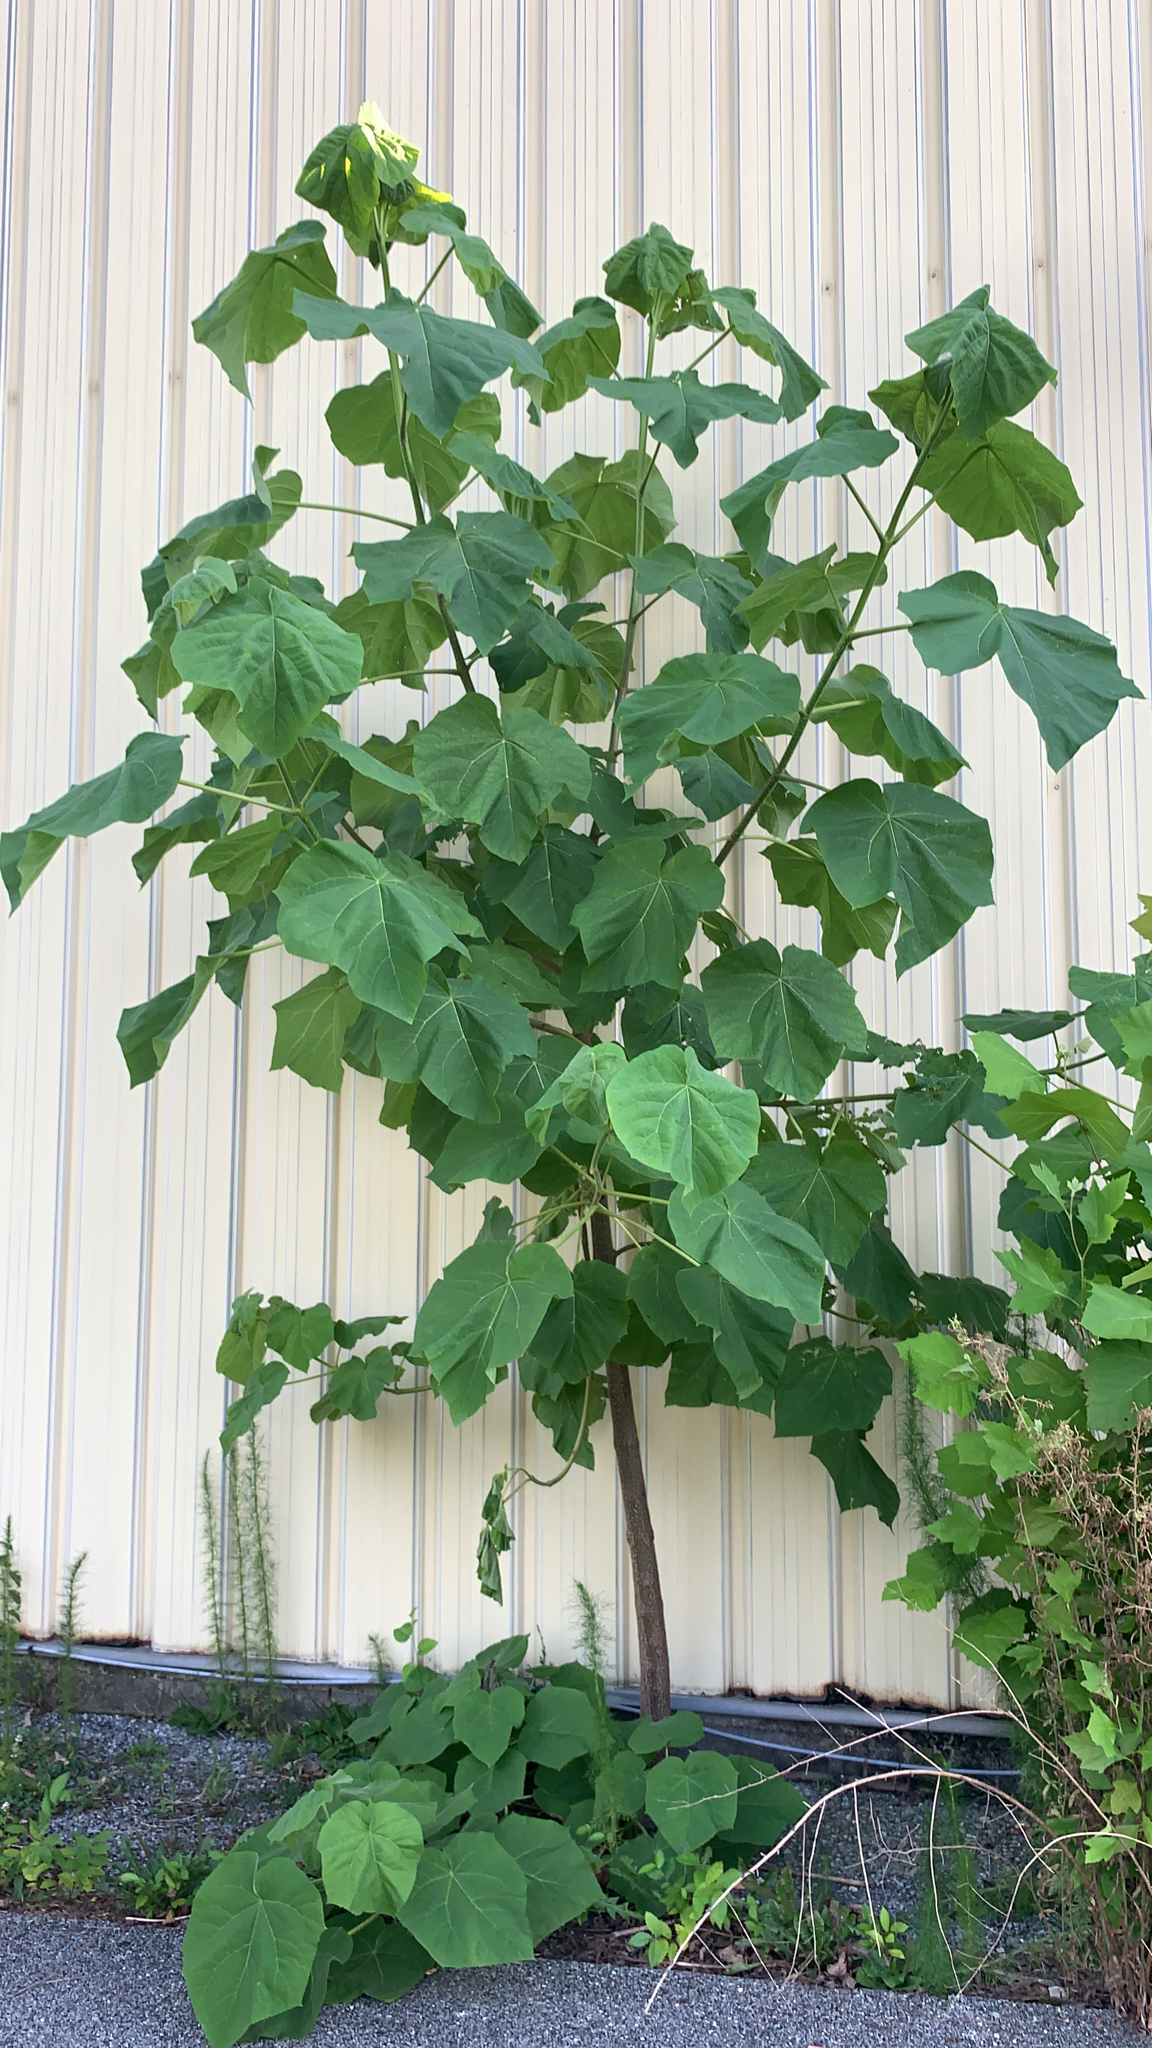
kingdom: Plantae
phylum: Tracheophyta
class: Magnoliopsida
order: Lamiales
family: Paulowniaceae
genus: Paulownia
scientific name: Paulownia tomentosa
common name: Foxglove-tree
